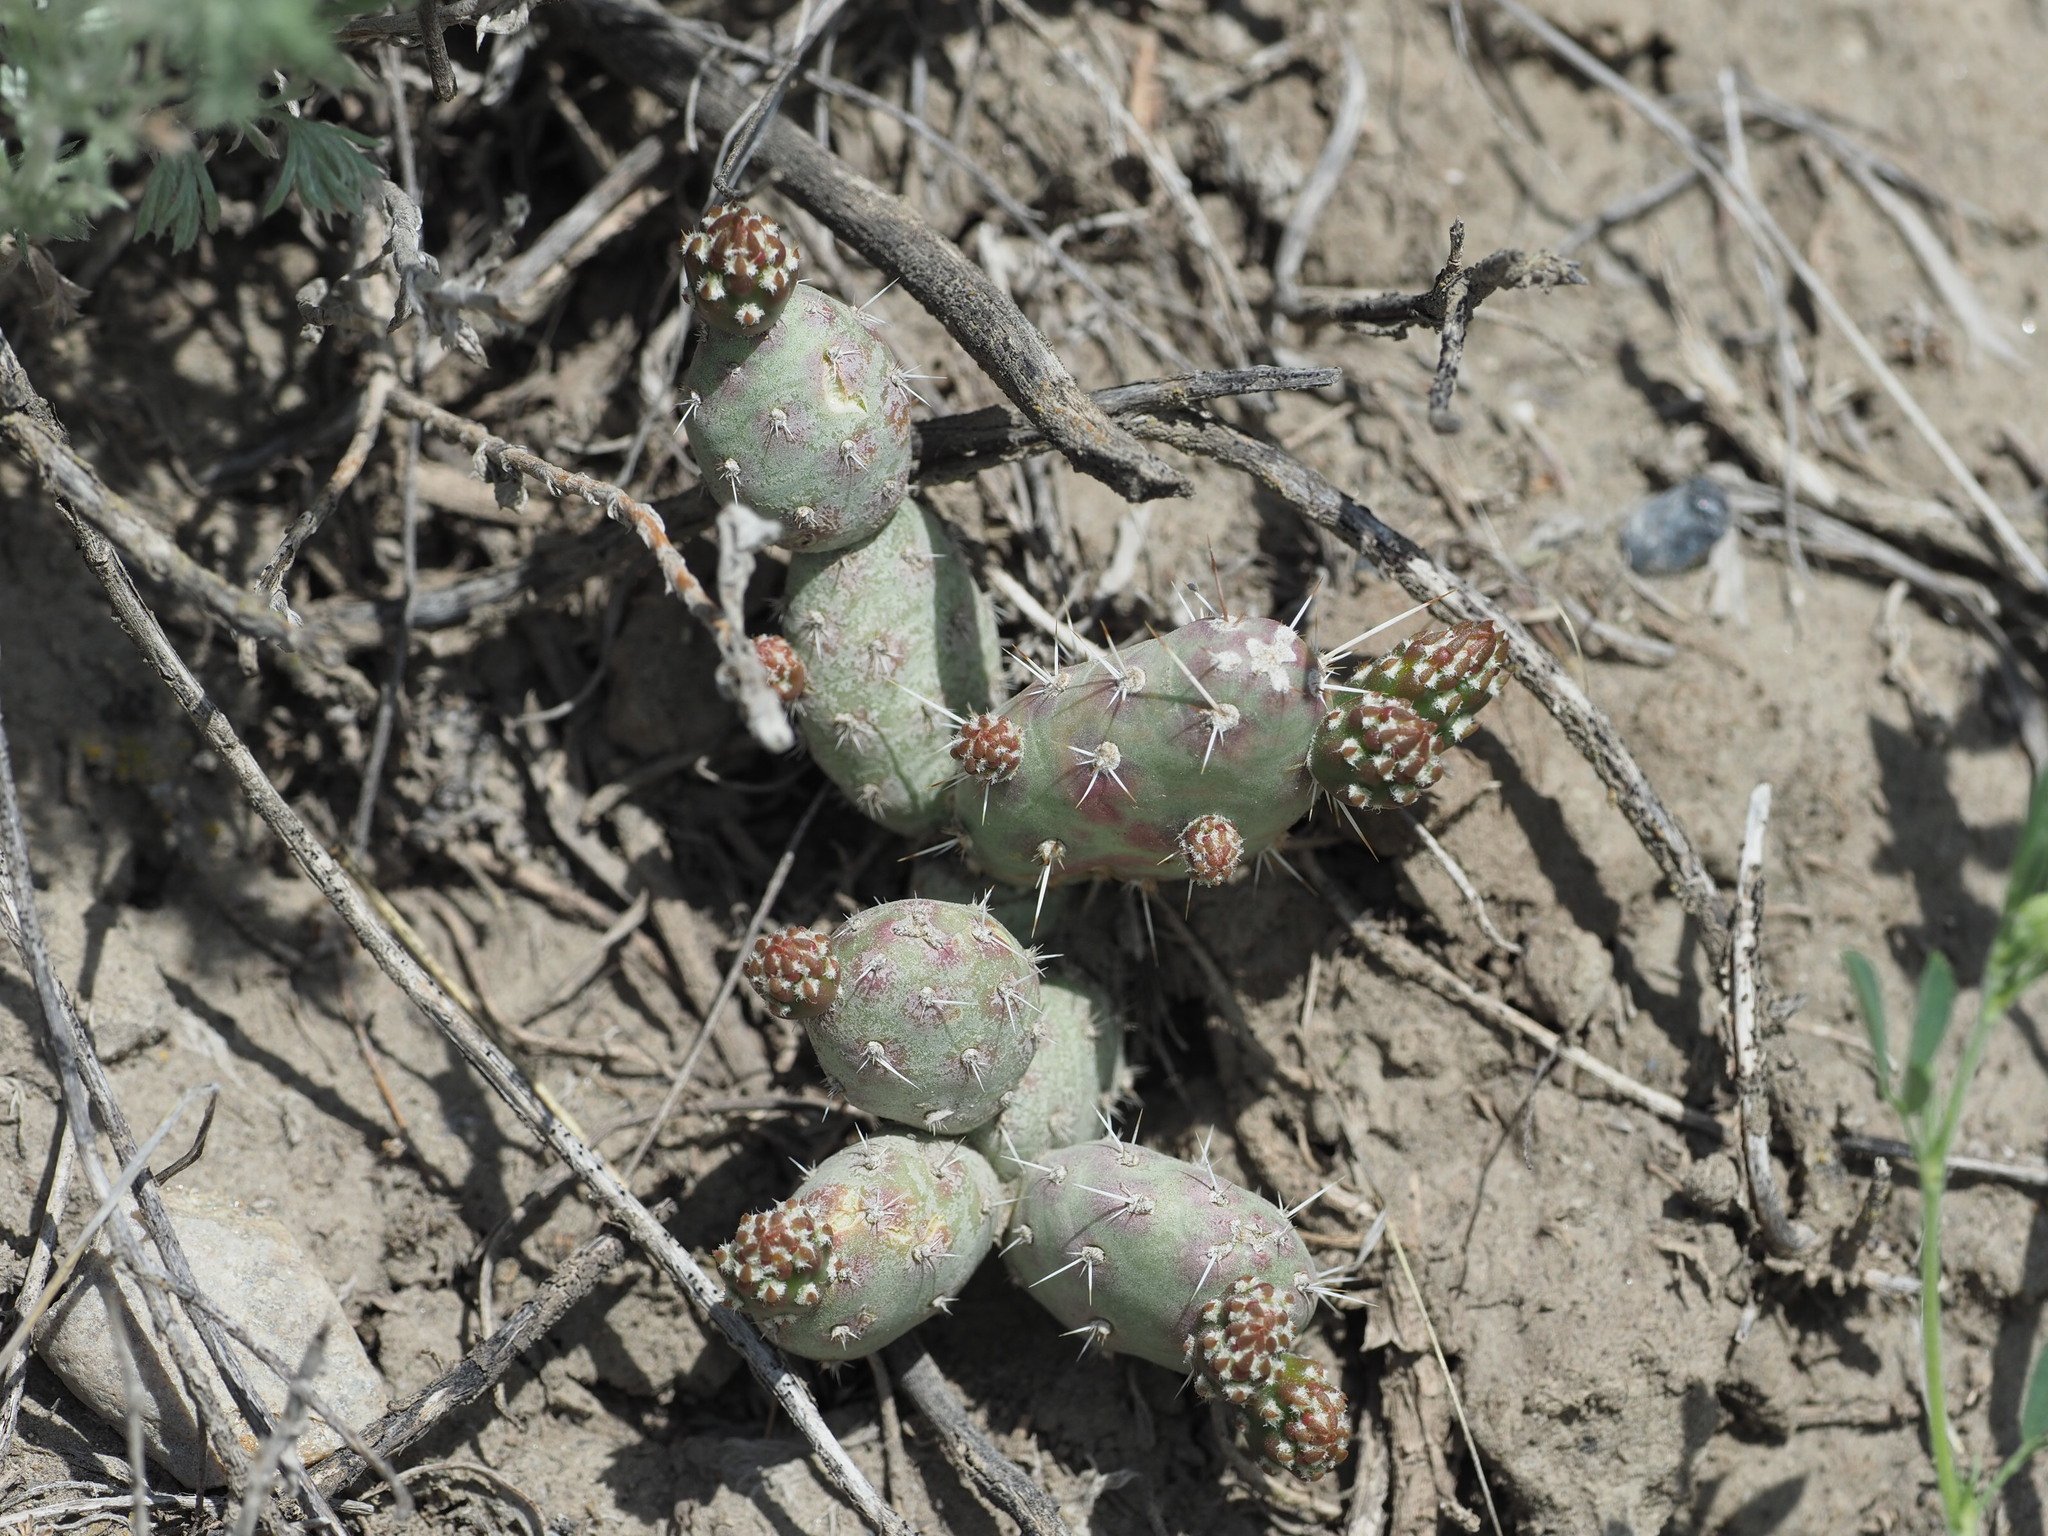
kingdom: Plantae
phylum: Tracheophyta
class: Magnoliopsida
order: Caryophyllales
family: Cactaceae
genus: Opuntia
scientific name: Opuntia fragilis
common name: Brittle cactus
